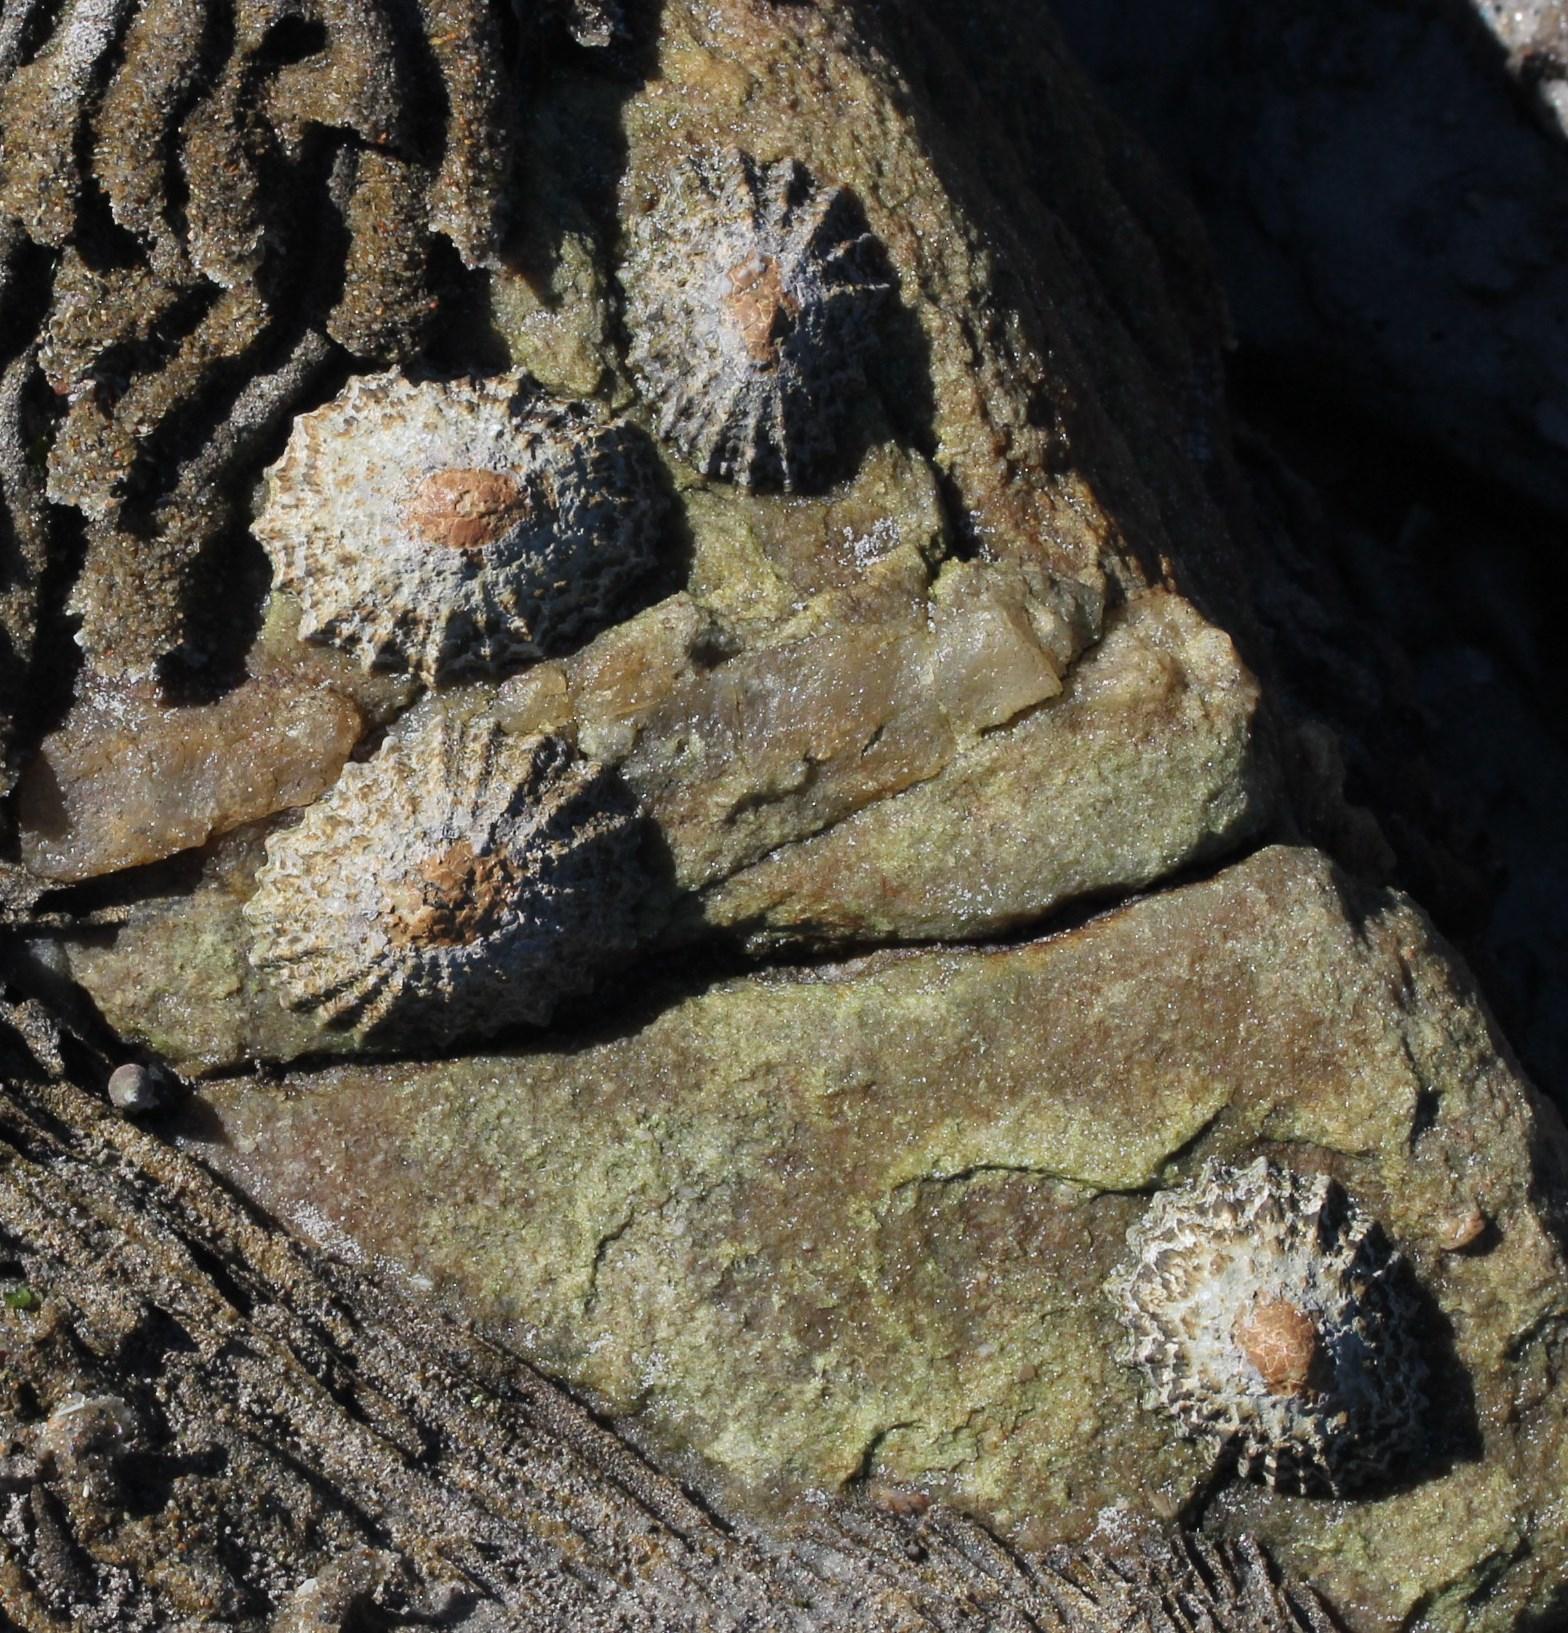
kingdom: Animalia
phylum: Mollusca
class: Gastropoda
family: Patellidae
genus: Cymbula
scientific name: Cymbula granatina
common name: Granite limpet
